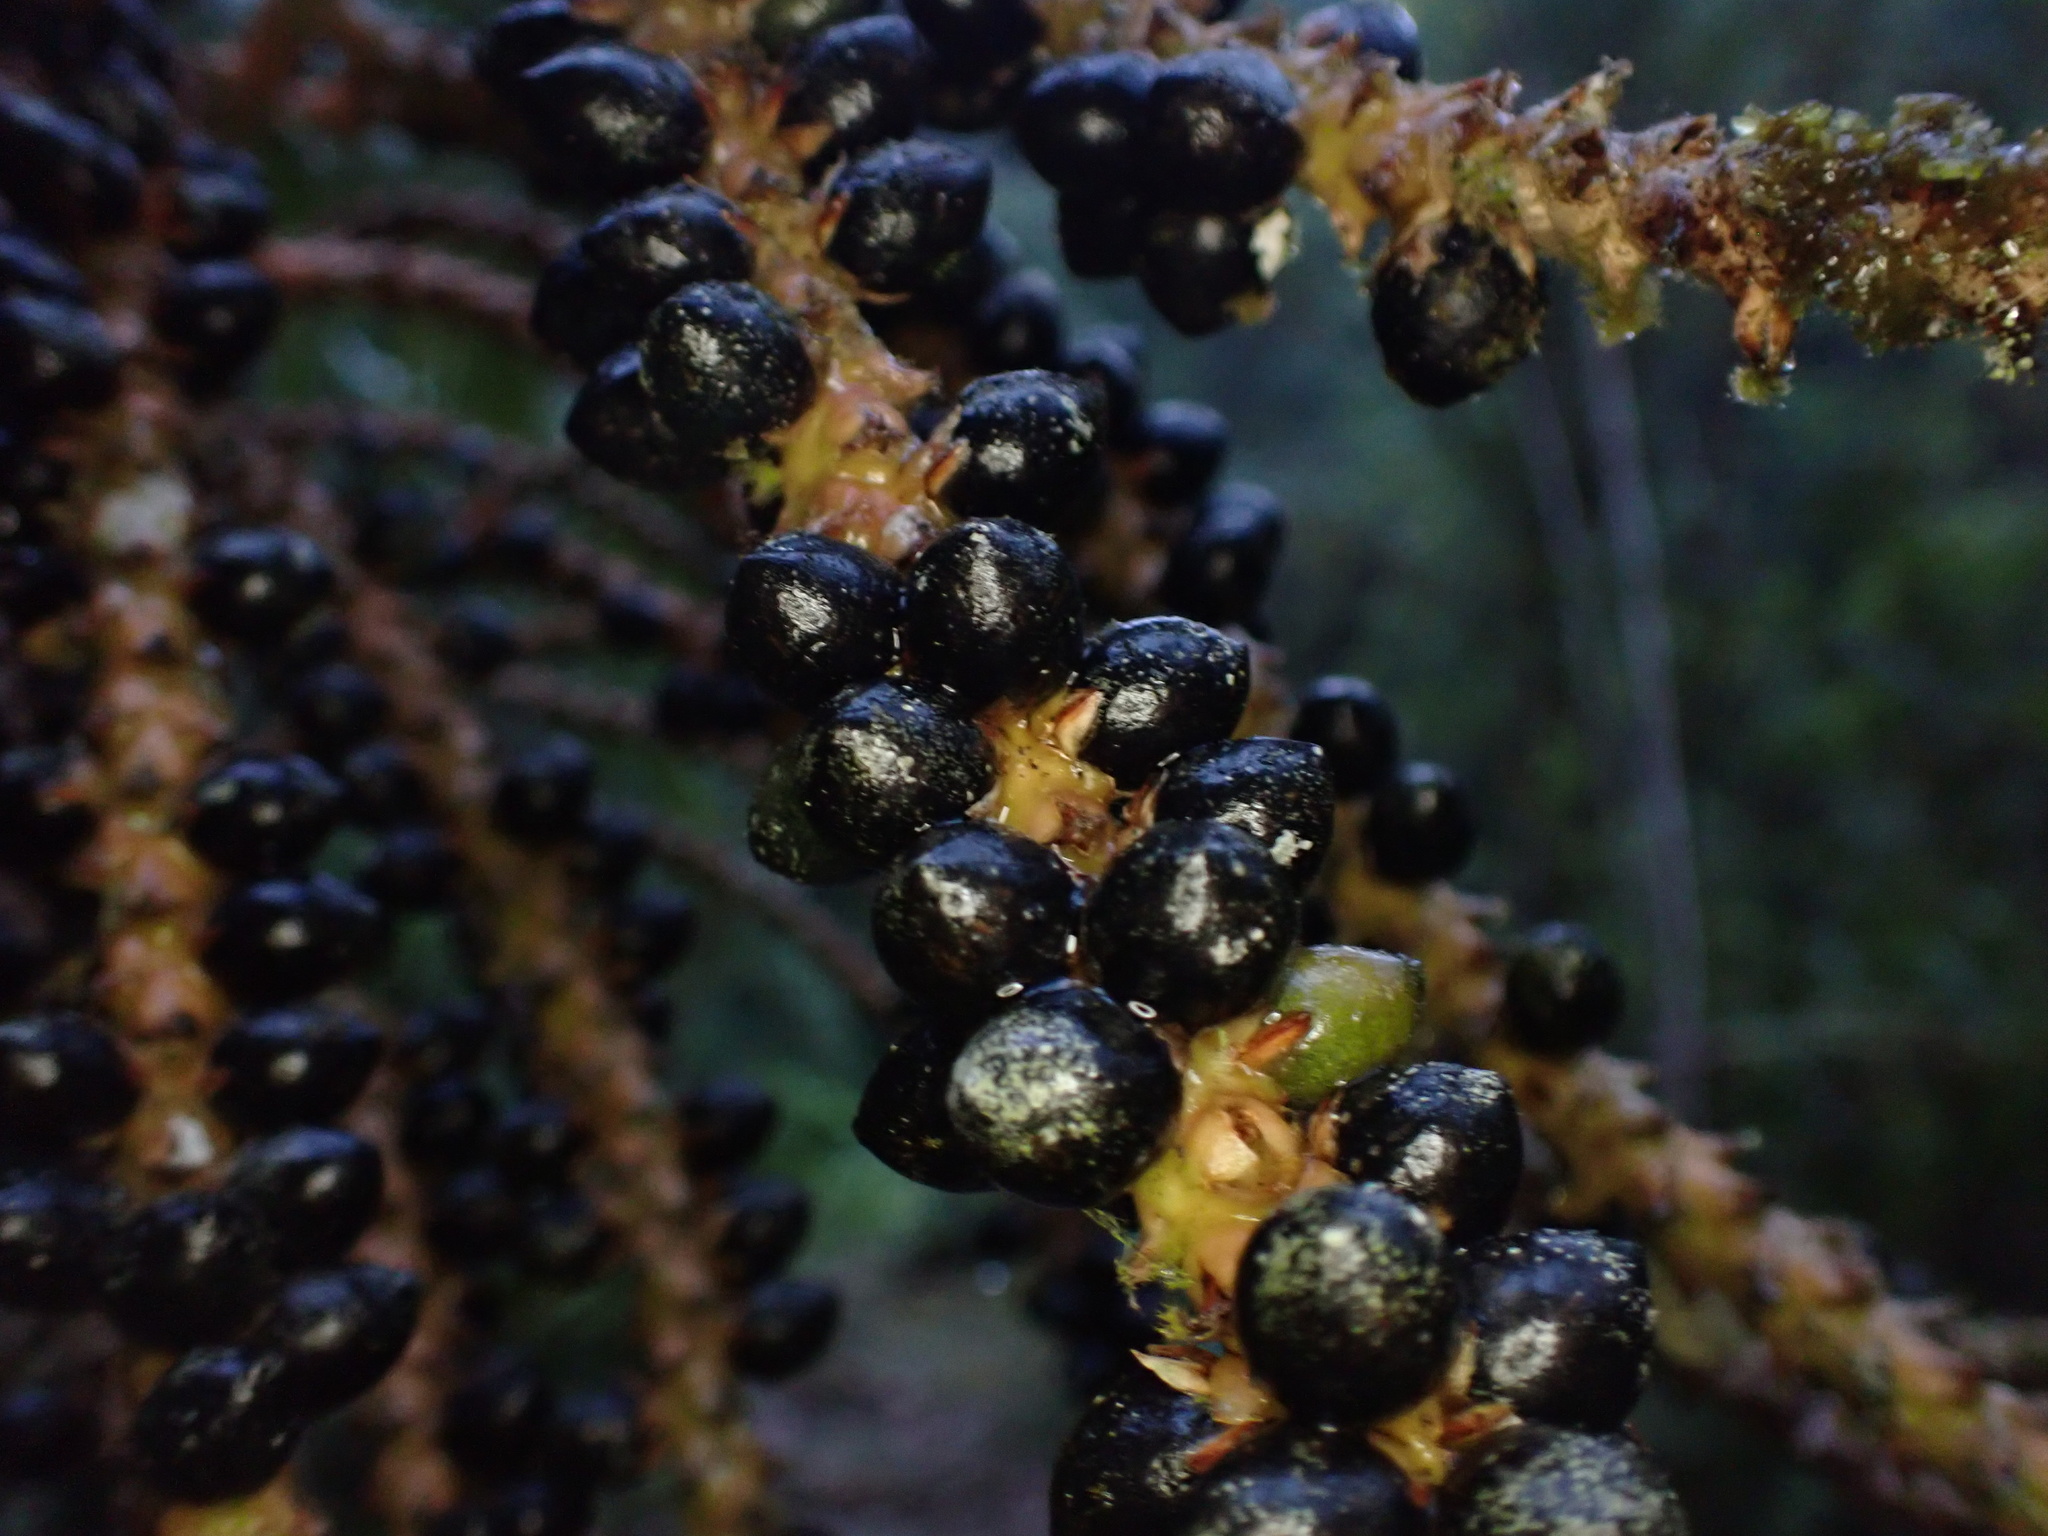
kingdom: Plantae
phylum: Tracheophyta
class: Liliopsida
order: Arecales
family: Arecaceae
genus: Geonoma
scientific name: Geonoma undata
